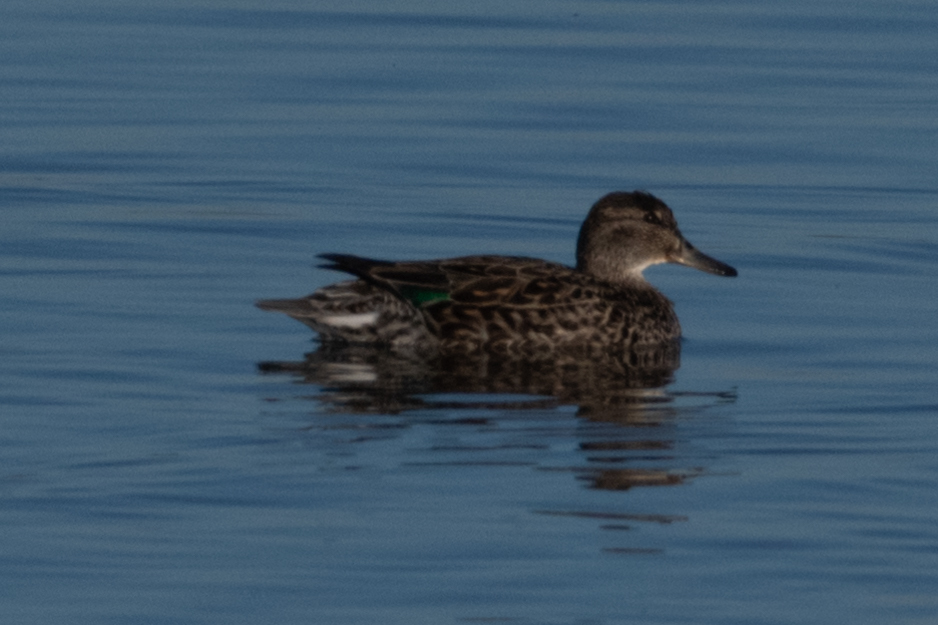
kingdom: Animalia
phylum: Chordata
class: Aves
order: Anseriformes
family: Anatidae
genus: Anas
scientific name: Anas carolinensis
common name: Green-winged teal
